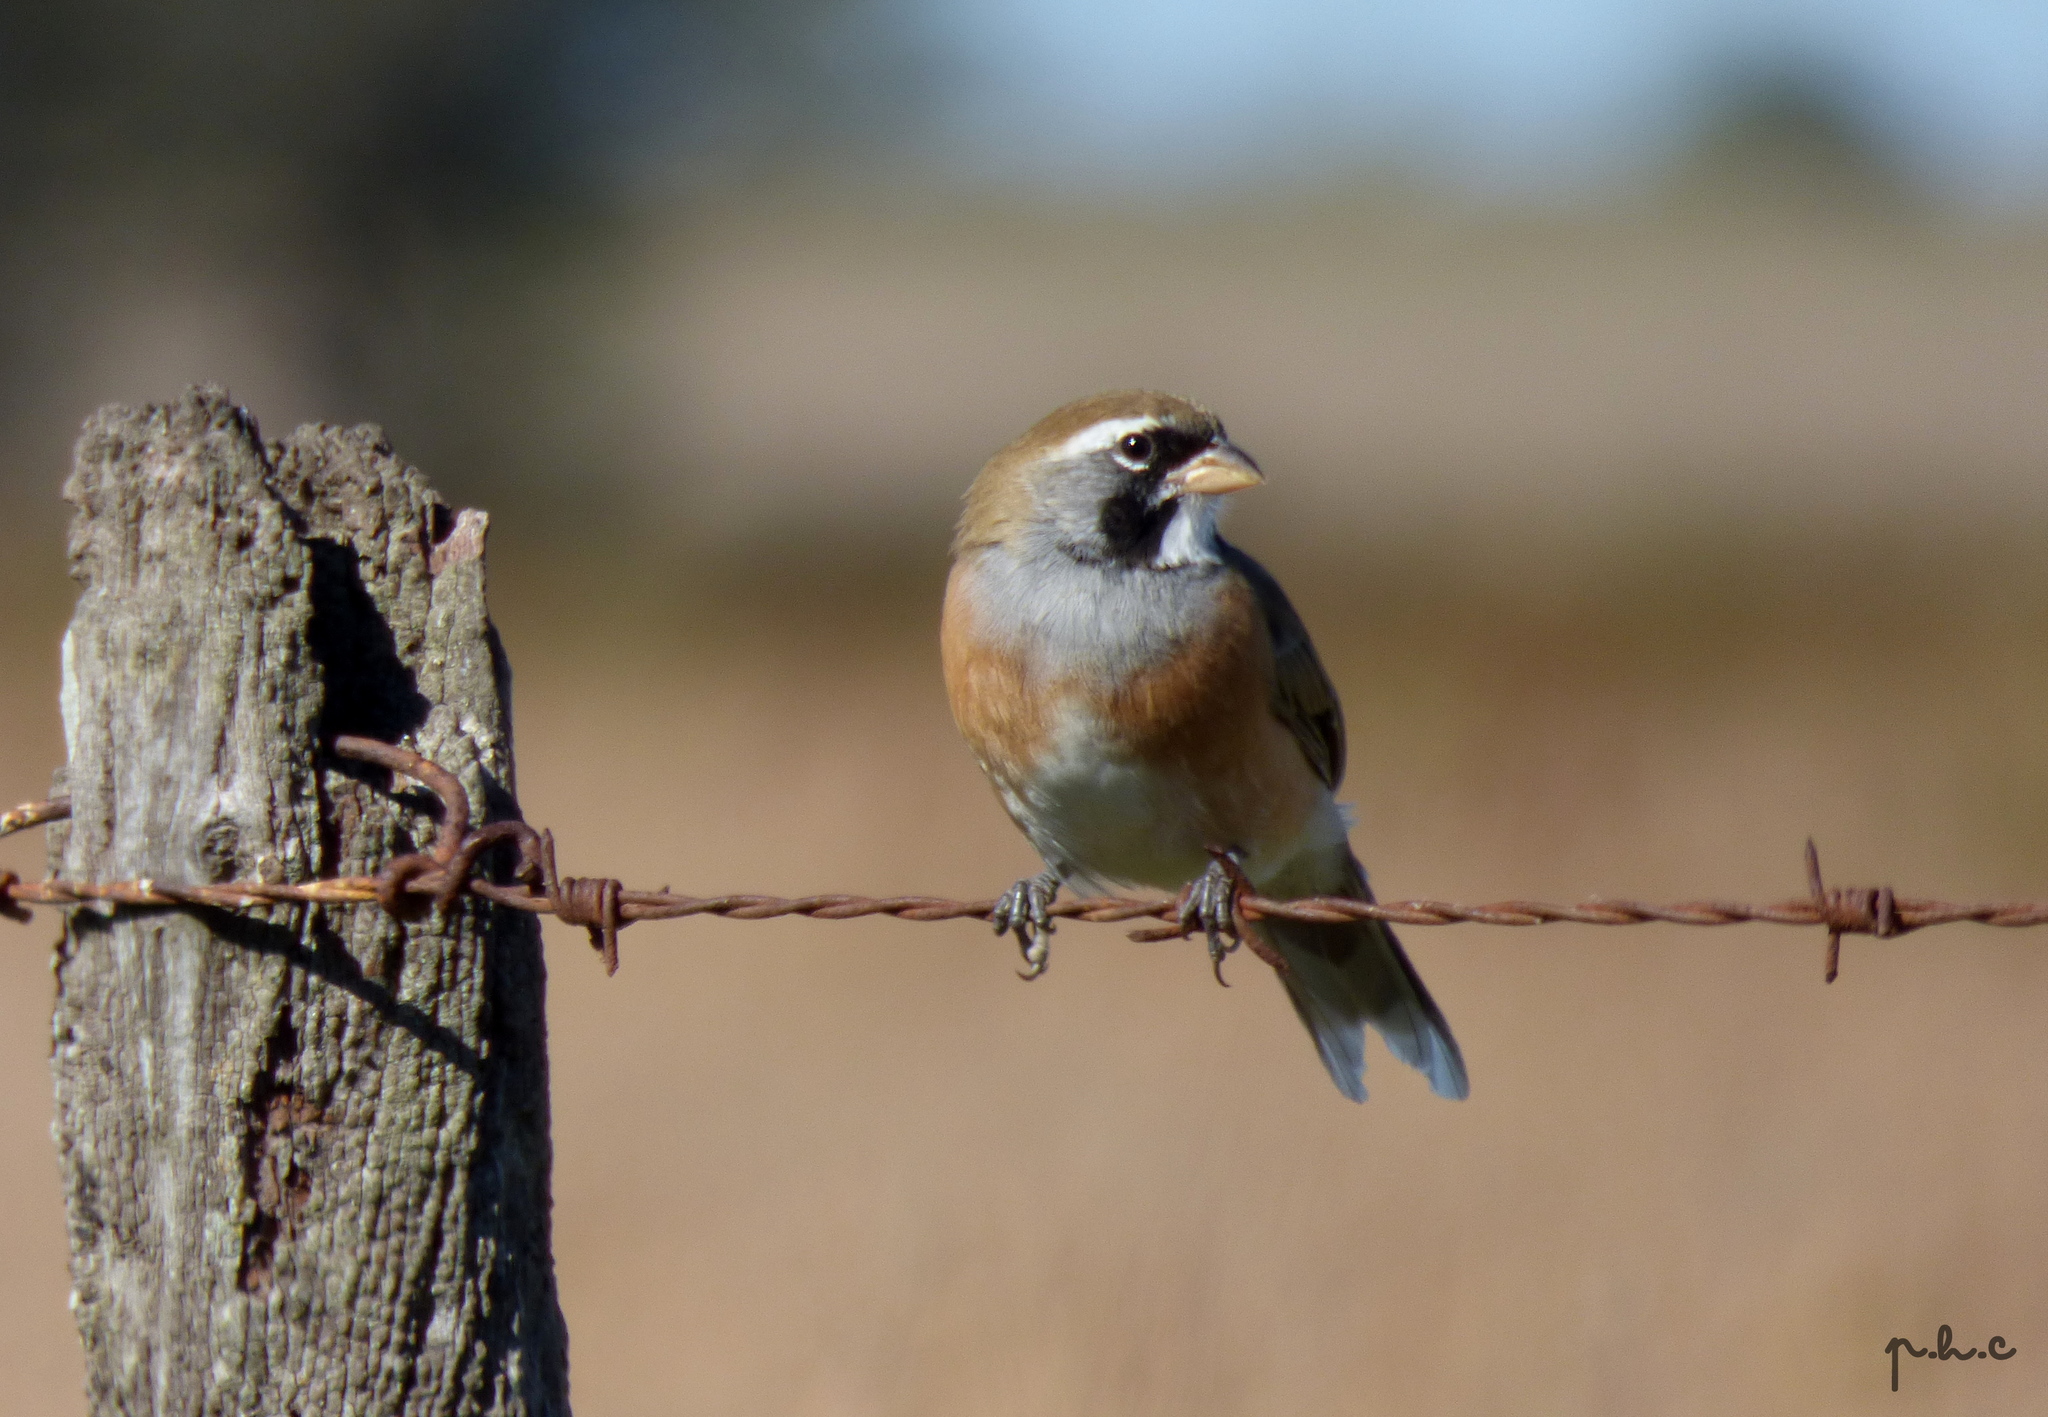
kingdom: Animalia
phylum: Chordata
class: Aves
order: Passeriformes
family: Thraupidae
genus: Saltatricula
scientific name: Saltatricula multicolor
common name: Many-colored chaco finch
